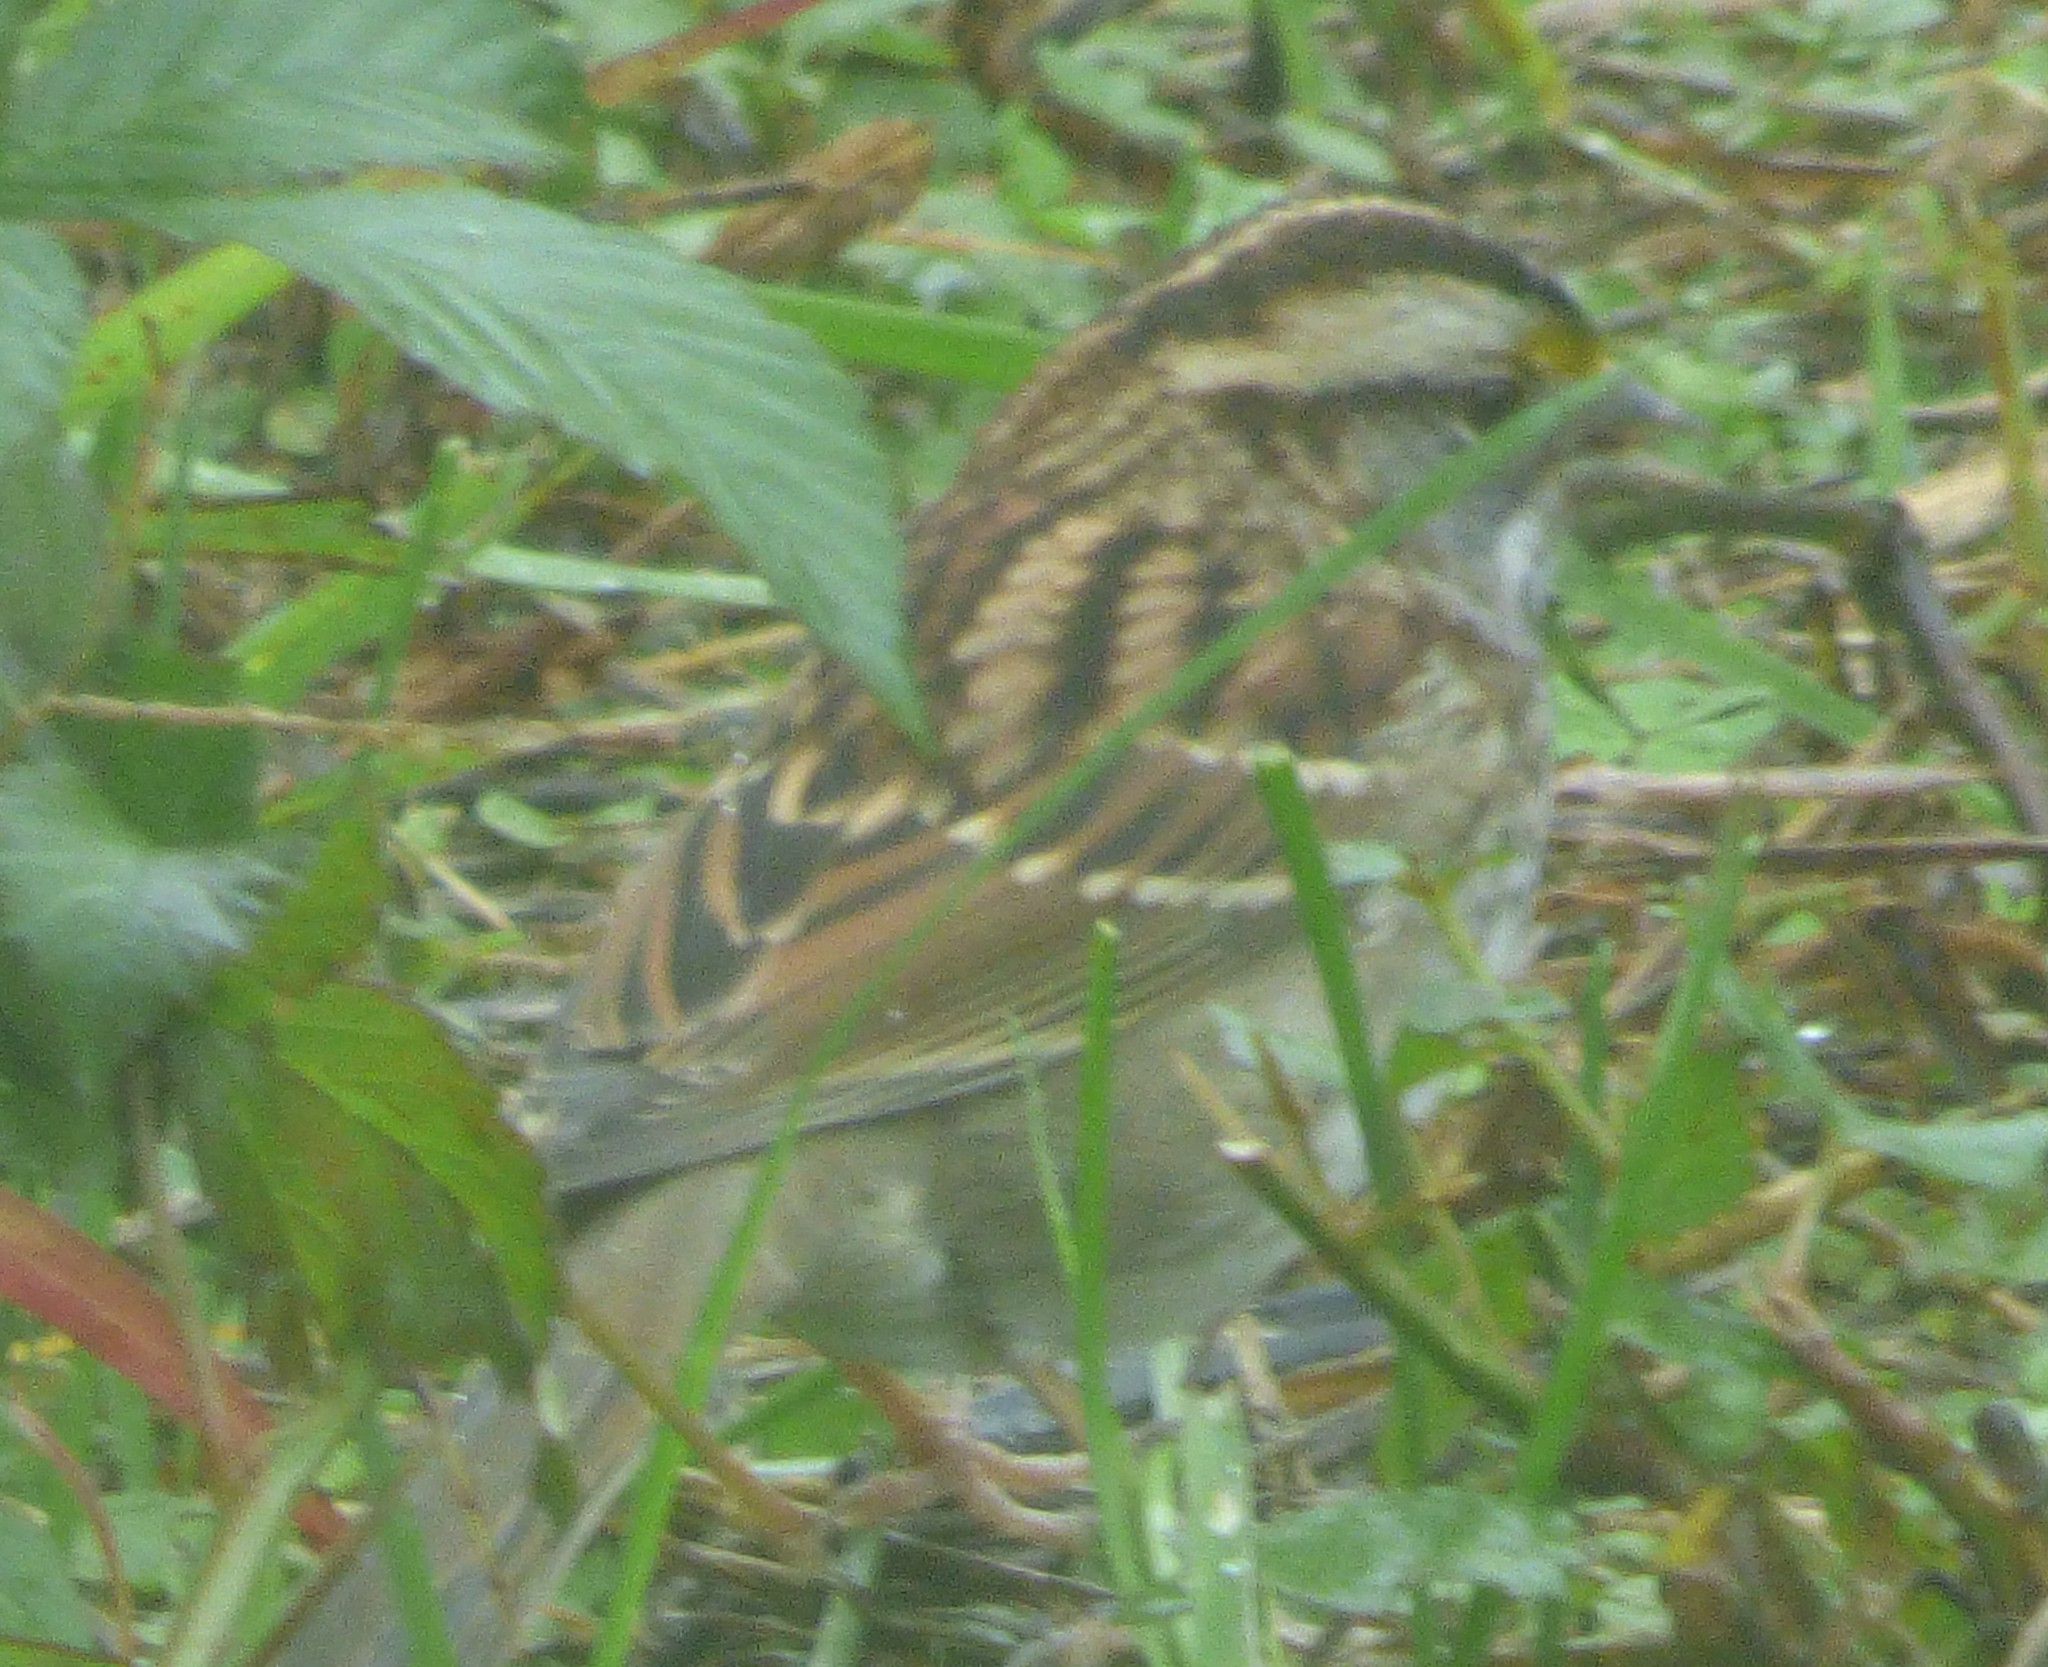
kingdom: Animalia
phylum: Chordata
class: Aves
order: Passeriformes
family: Passerellidae
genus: Zonotrichia
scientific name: Zonotrichia albicollis
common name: White-throated sparrow
